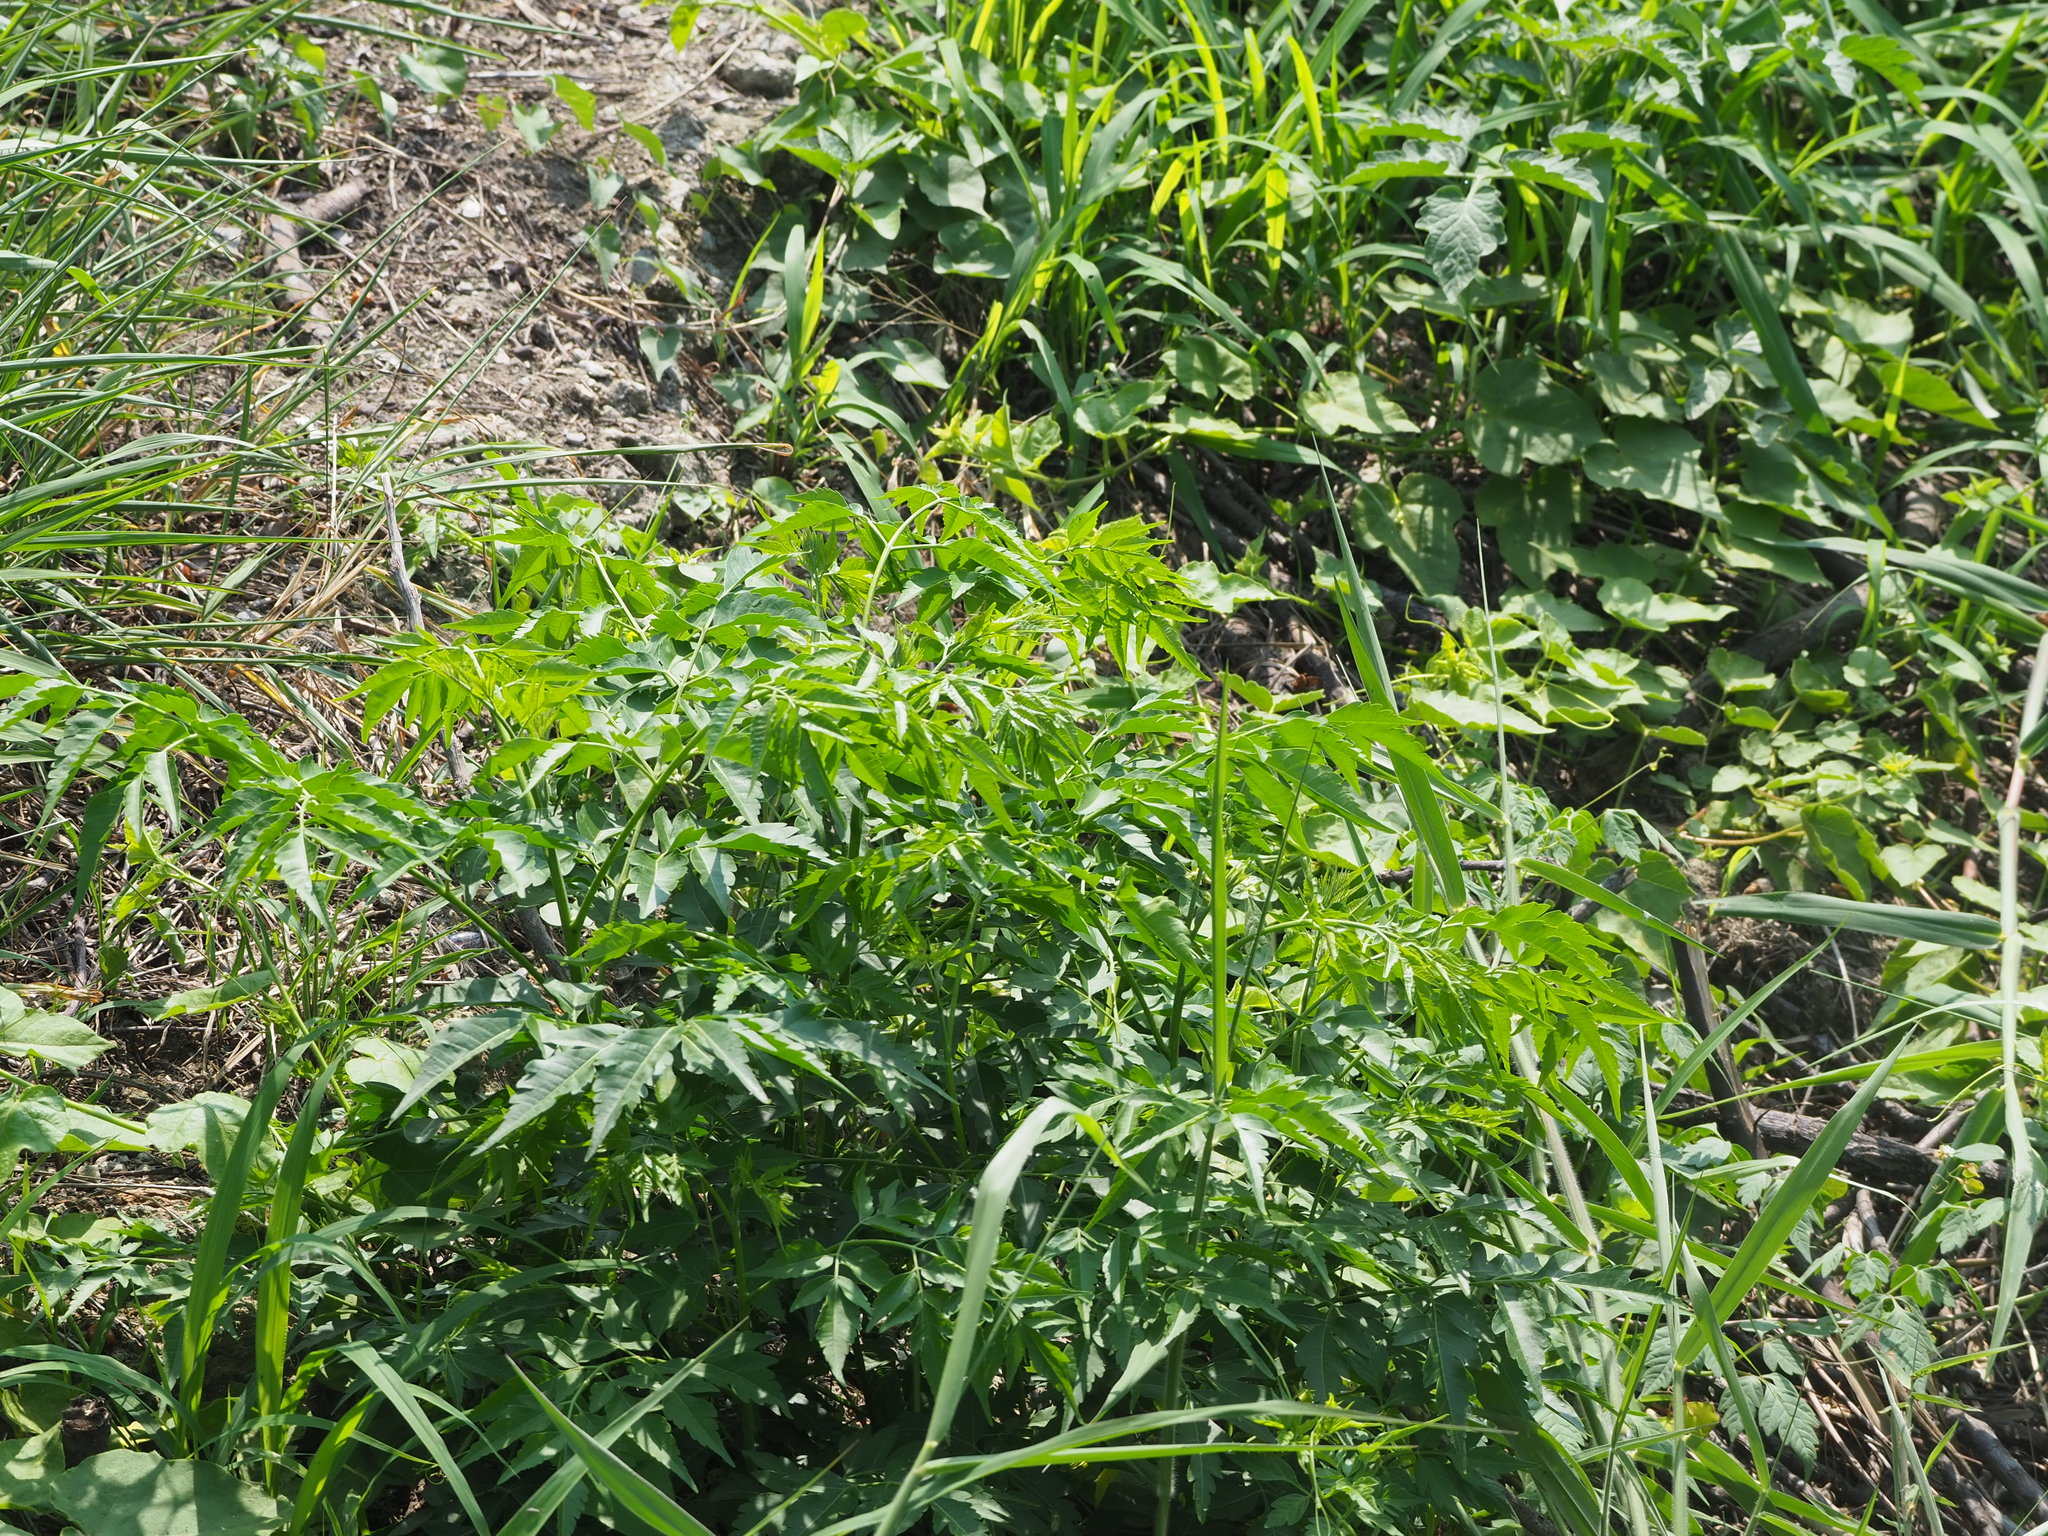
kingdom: Plantae
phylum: Tracheophyta
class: Magnoliopsida
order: Sapindales
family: Meliaceae
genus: Melia
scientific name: Melia azedarach
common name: Chinaberrytree
